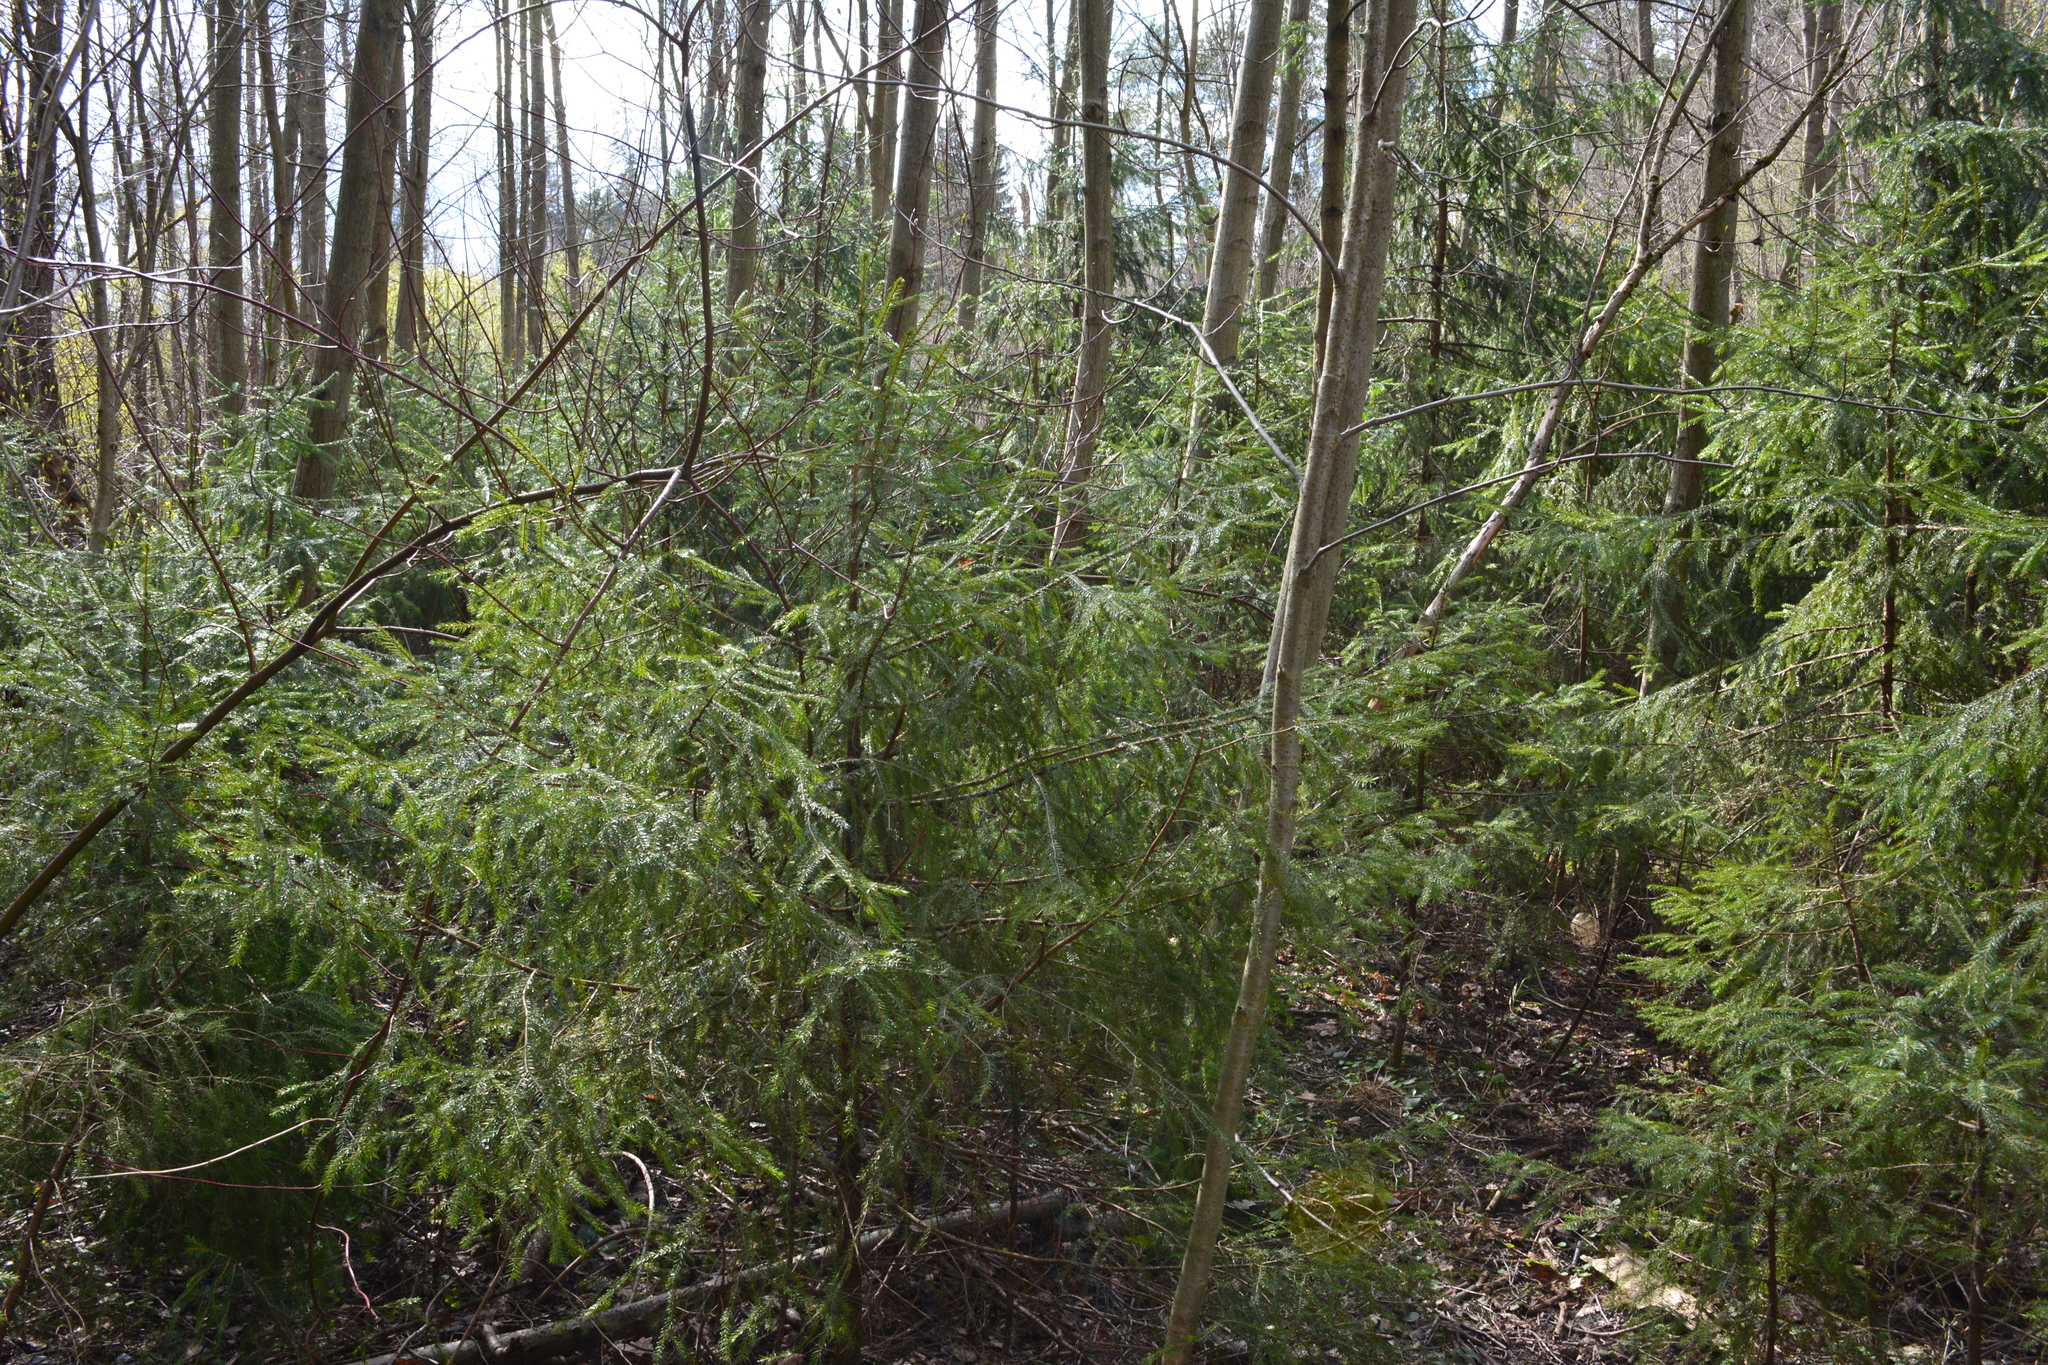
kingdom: Plantae
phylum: Tracheophyta
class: Pinopsida
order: Pinales
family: Pinaceae
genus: Picea
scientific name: Picea abies
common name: Norway spruce
